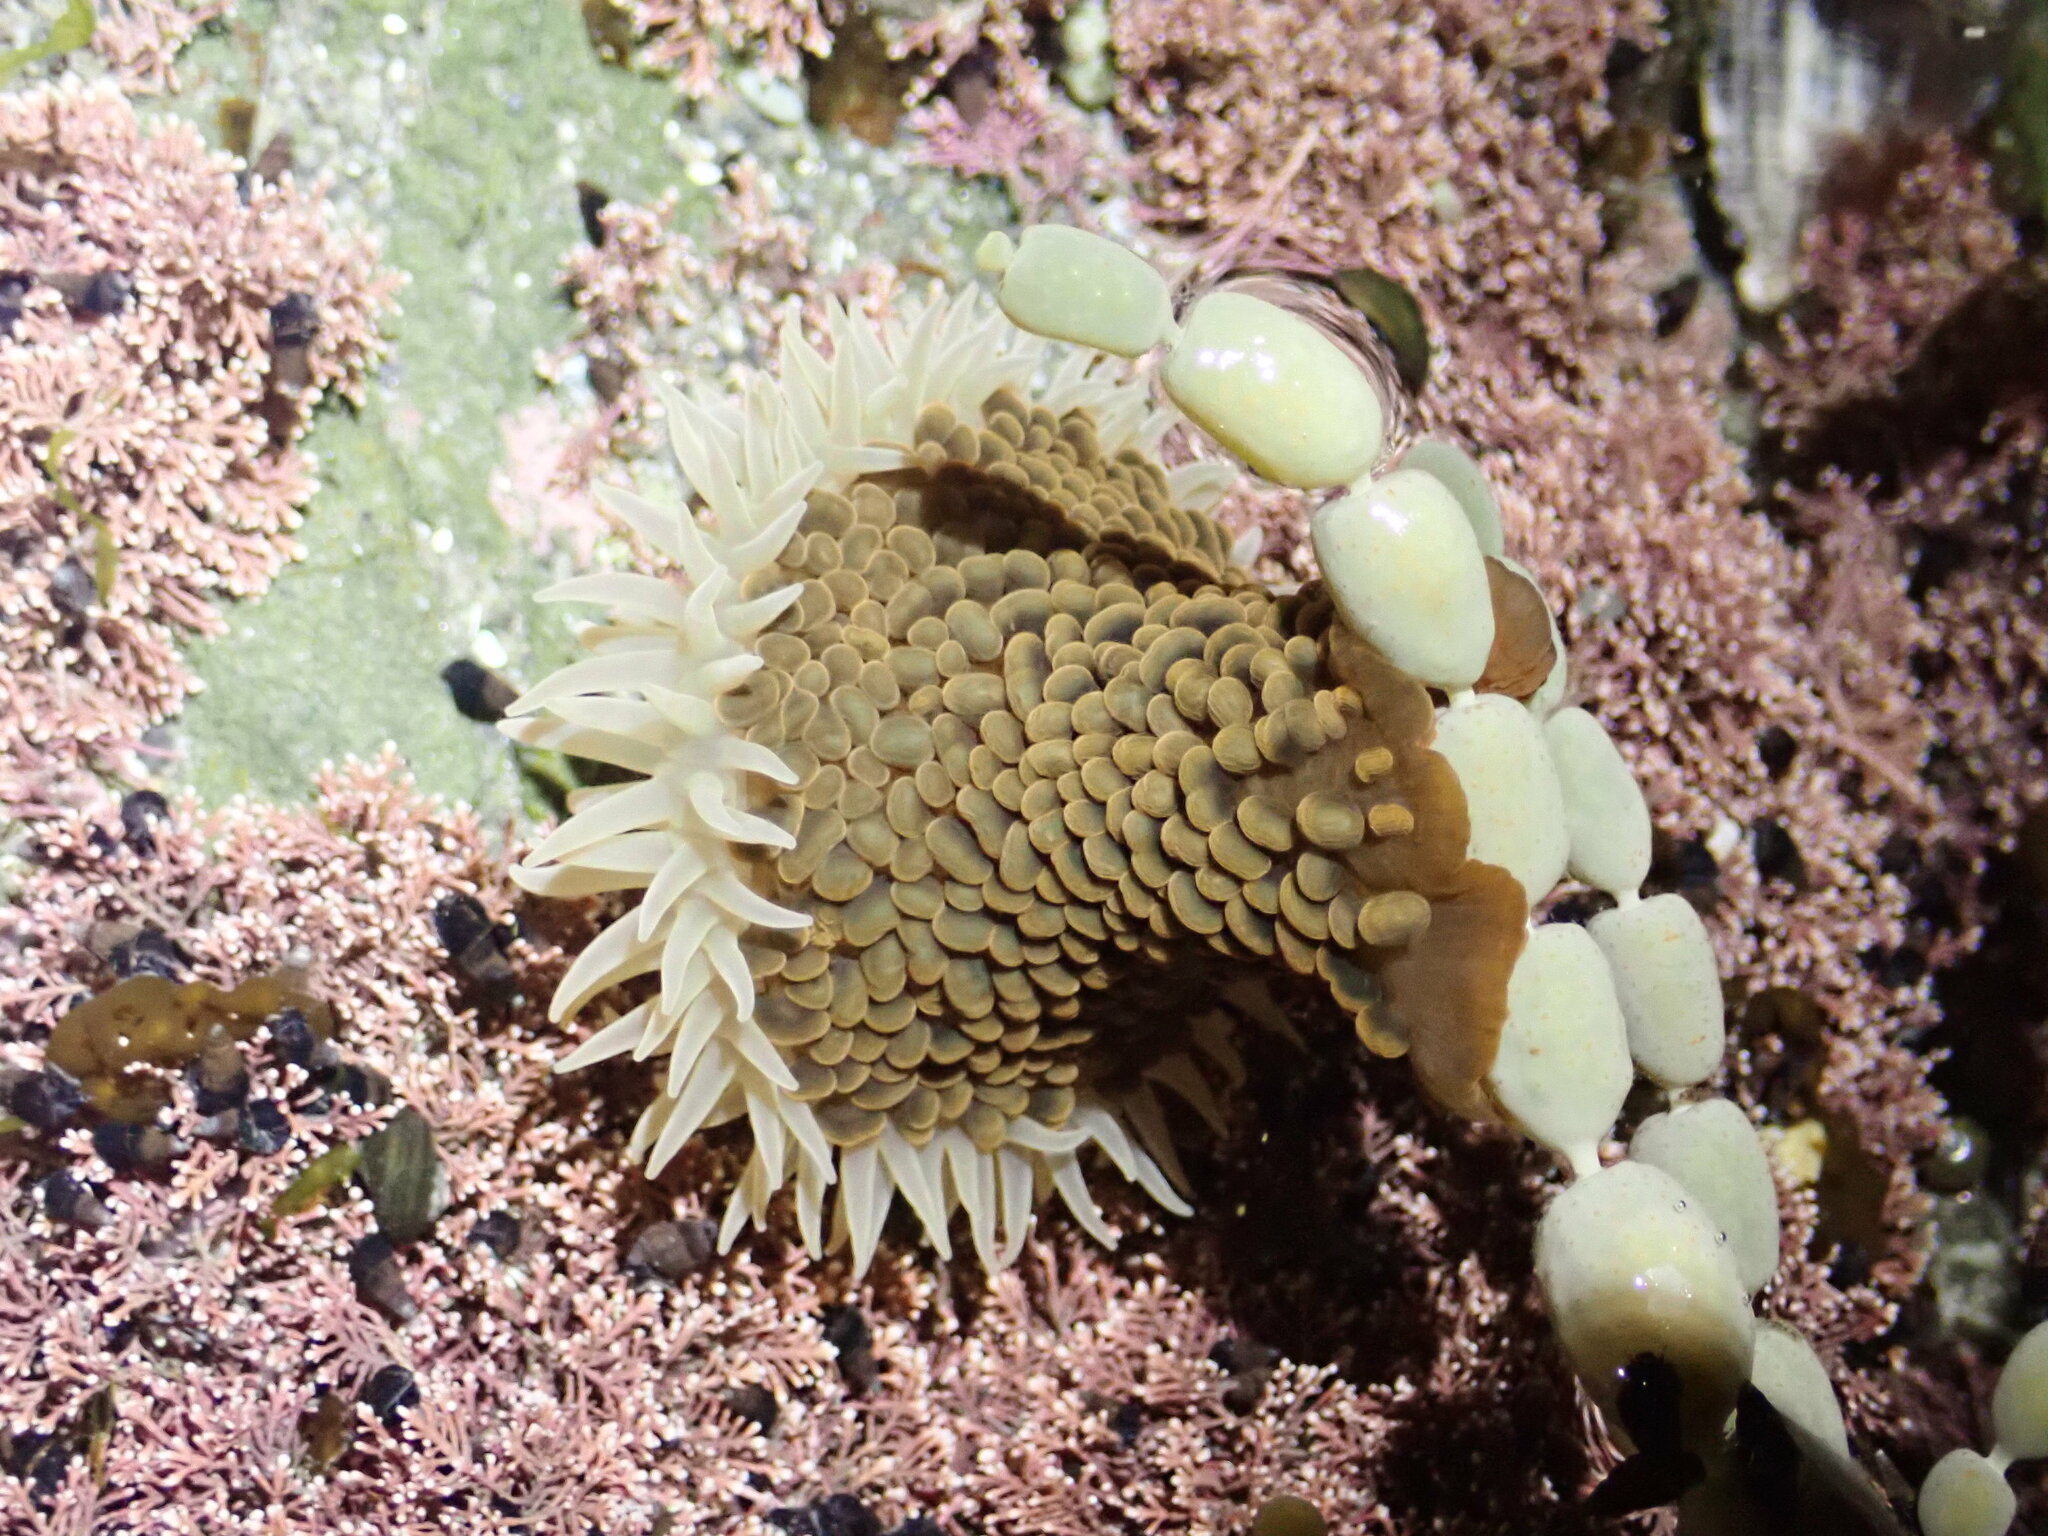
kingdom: Animalia
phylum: Cnidaria
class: Anthozoa
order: Actiniaria
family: Actiniidae
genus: Phlyctenactis
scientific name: Phlyctenactis tuberculosa
